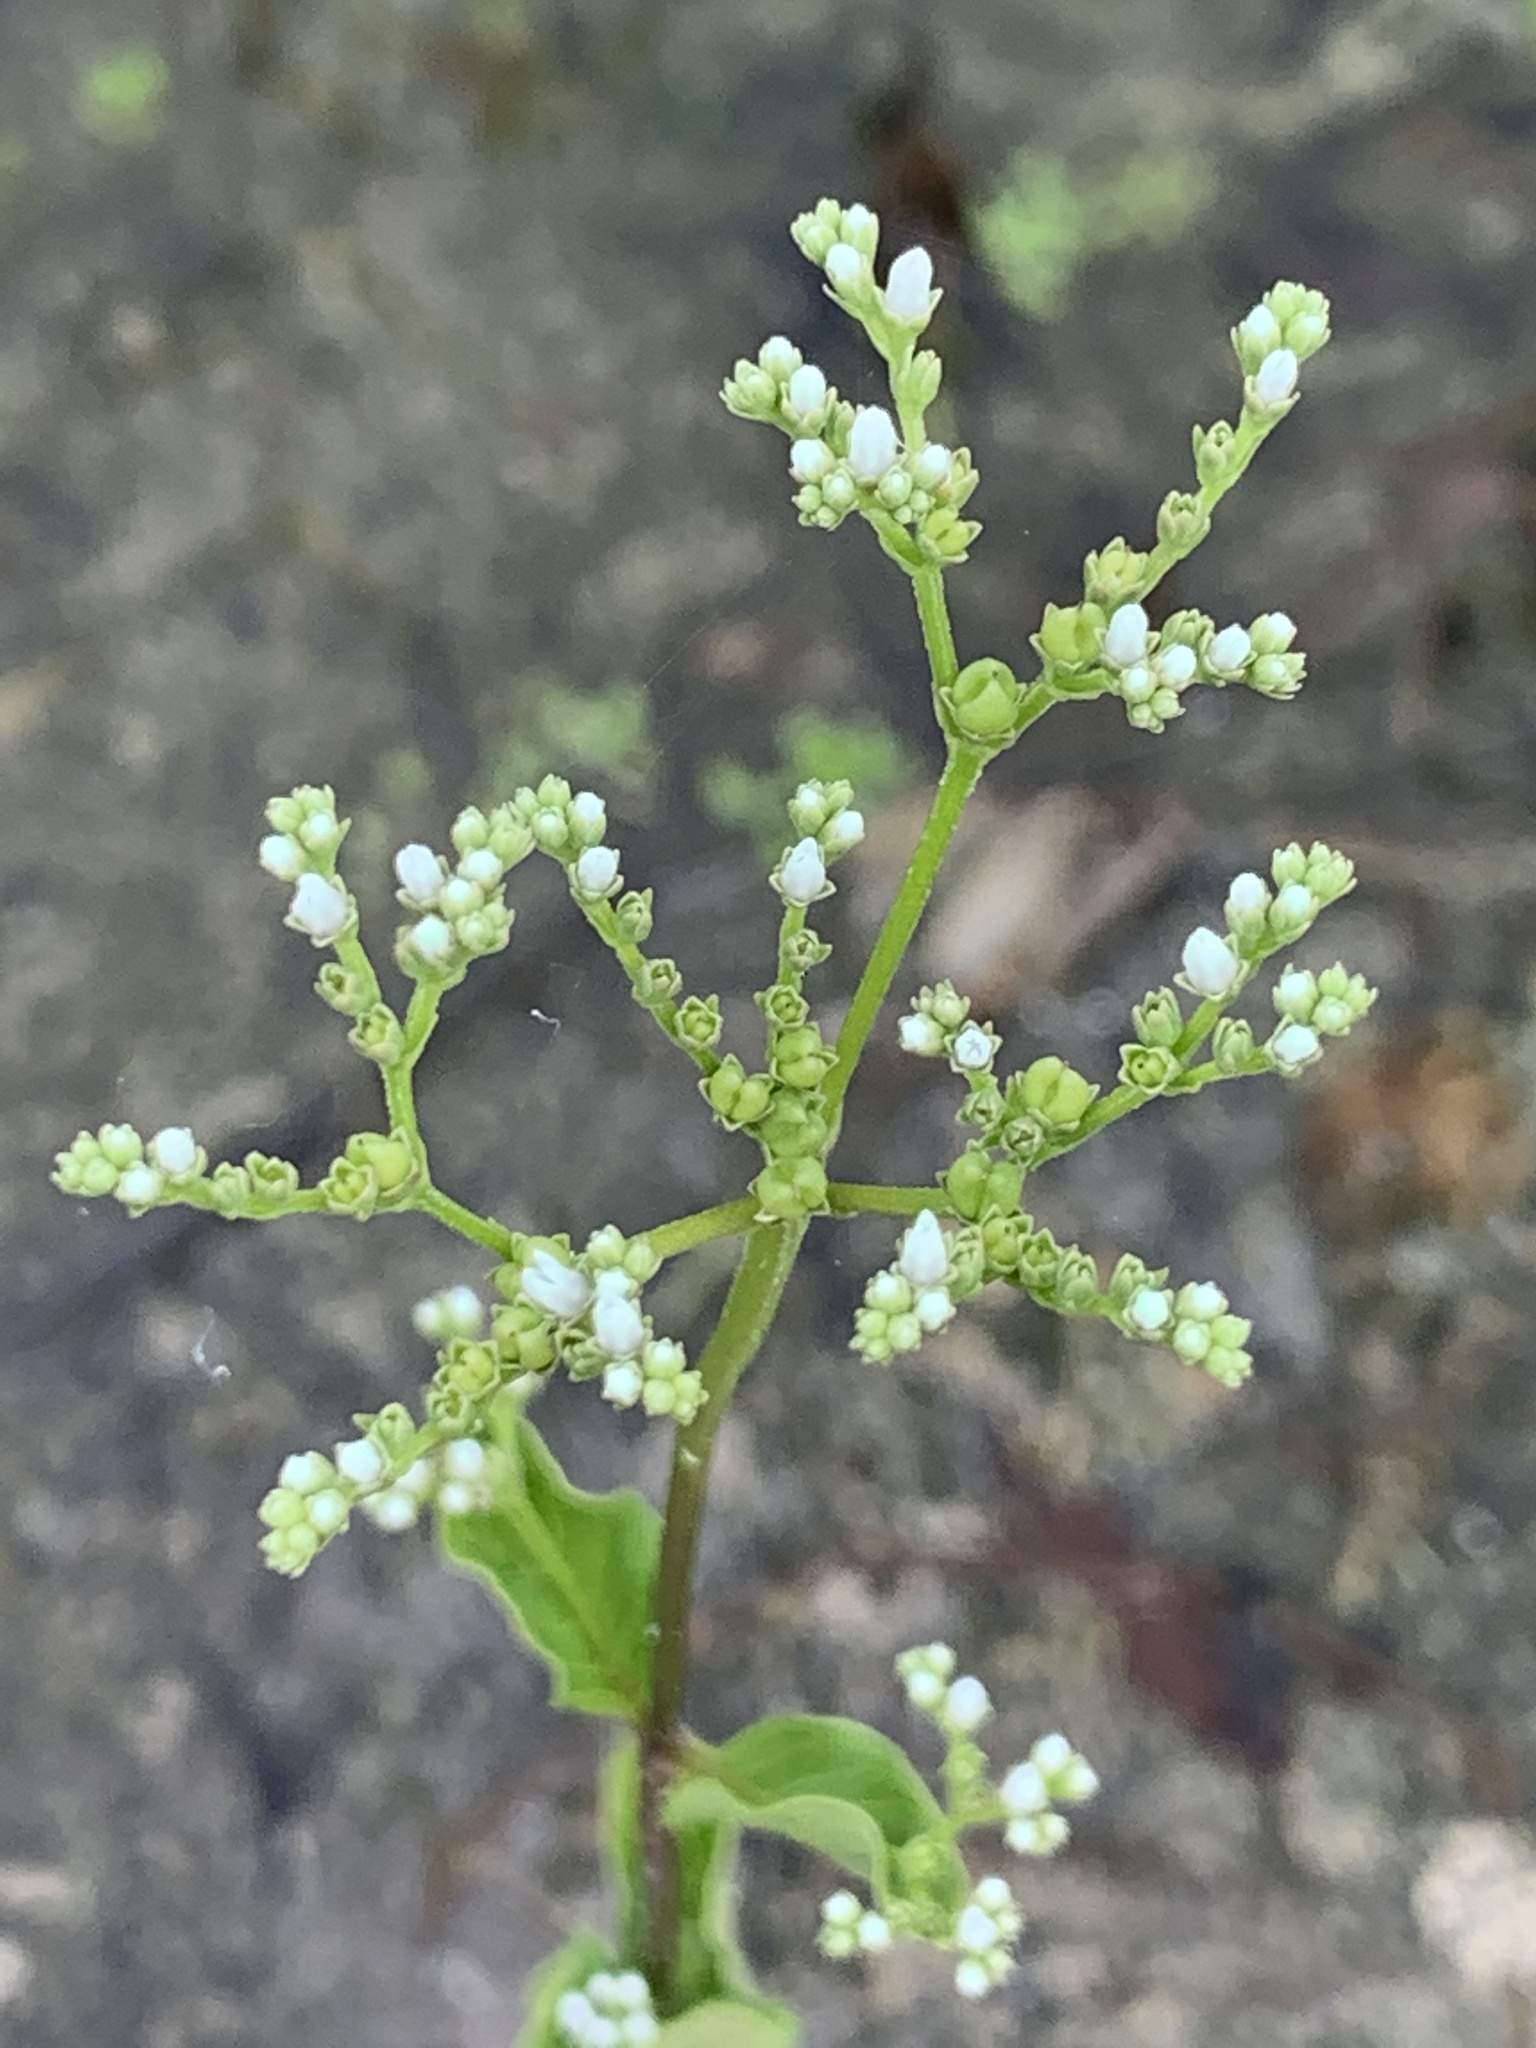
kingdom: Plantae
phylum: Tracheophyta
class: Magnoliopsida
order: Gentianales
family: Loganiaceae
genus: Mitreola
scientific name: Mitreola petiolata
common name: Lax hornpod
